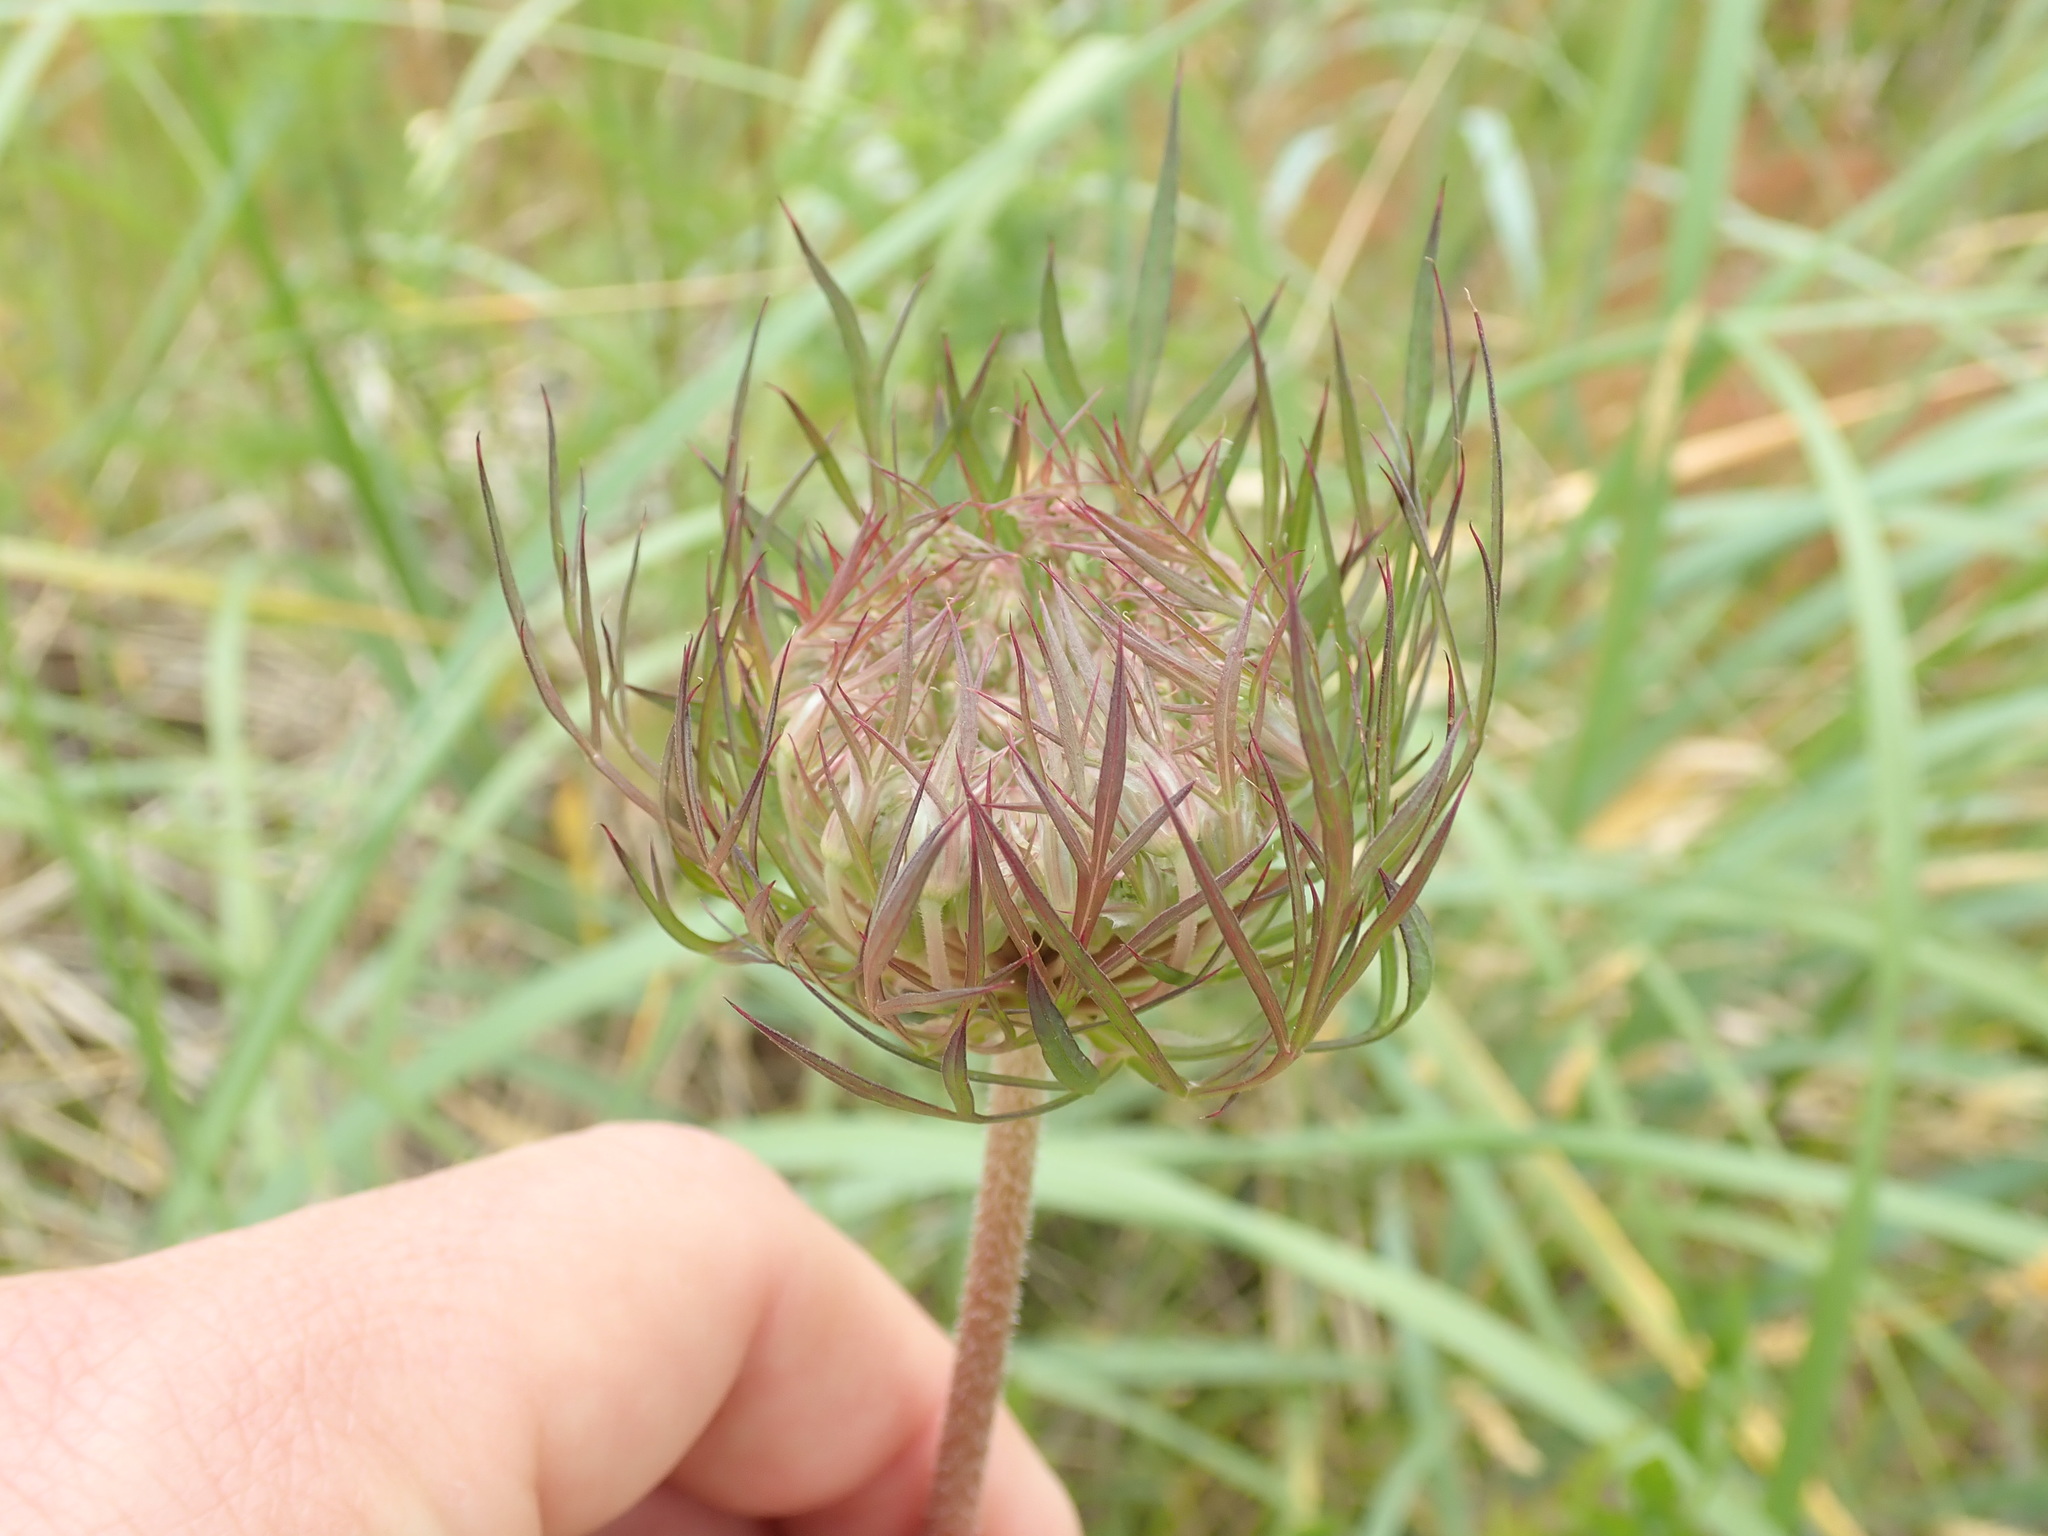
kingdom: Plantae
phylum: Tracheophyta
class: Magnoliopsida
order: Apiales
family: Apiaceae
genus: Daucus
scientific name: Daucus carota
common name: Wild carrot
